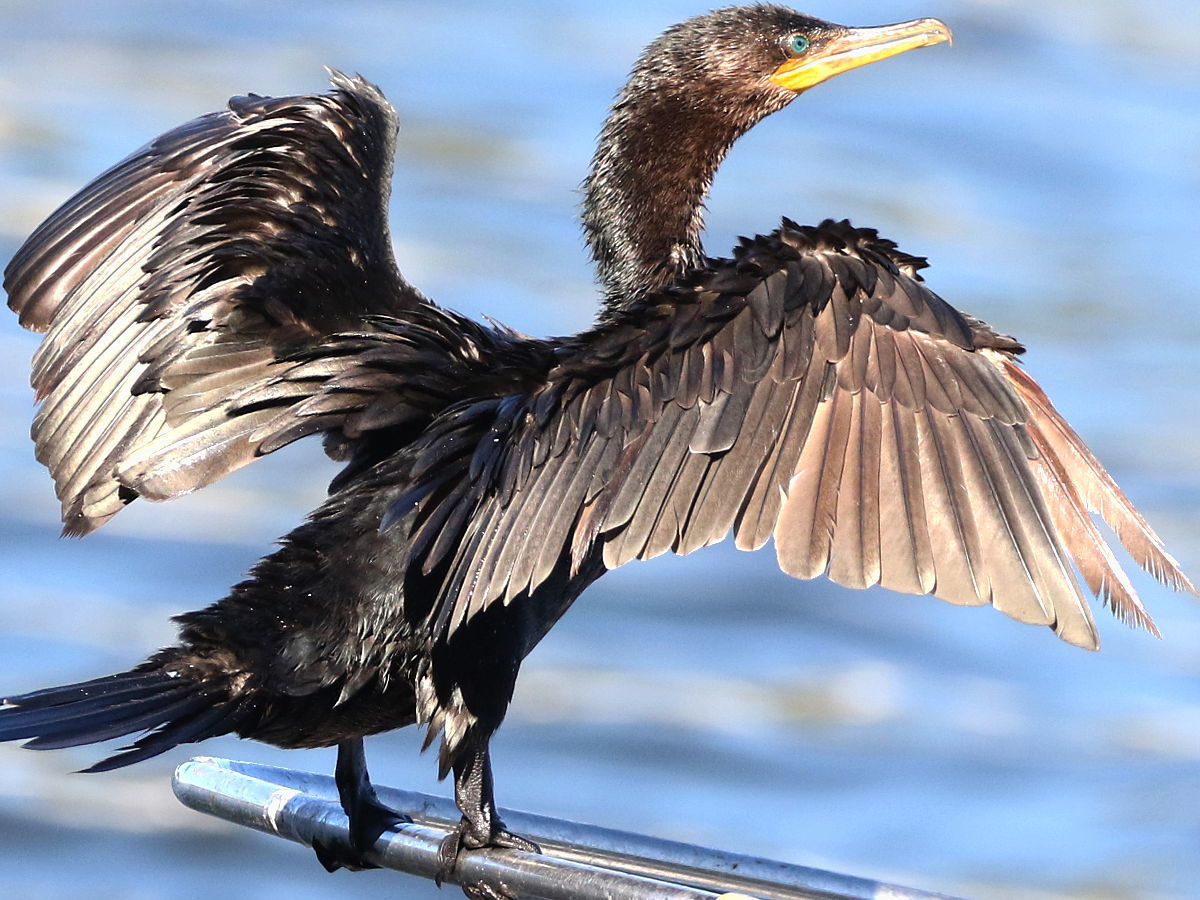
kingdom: Animalia
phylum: Chordata
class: Aves
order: Suliformes
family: Phalacrocoracidae
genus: Phalacrocorax
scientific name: Phalacrocorax brasilianus
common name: Neotropic cormorant
